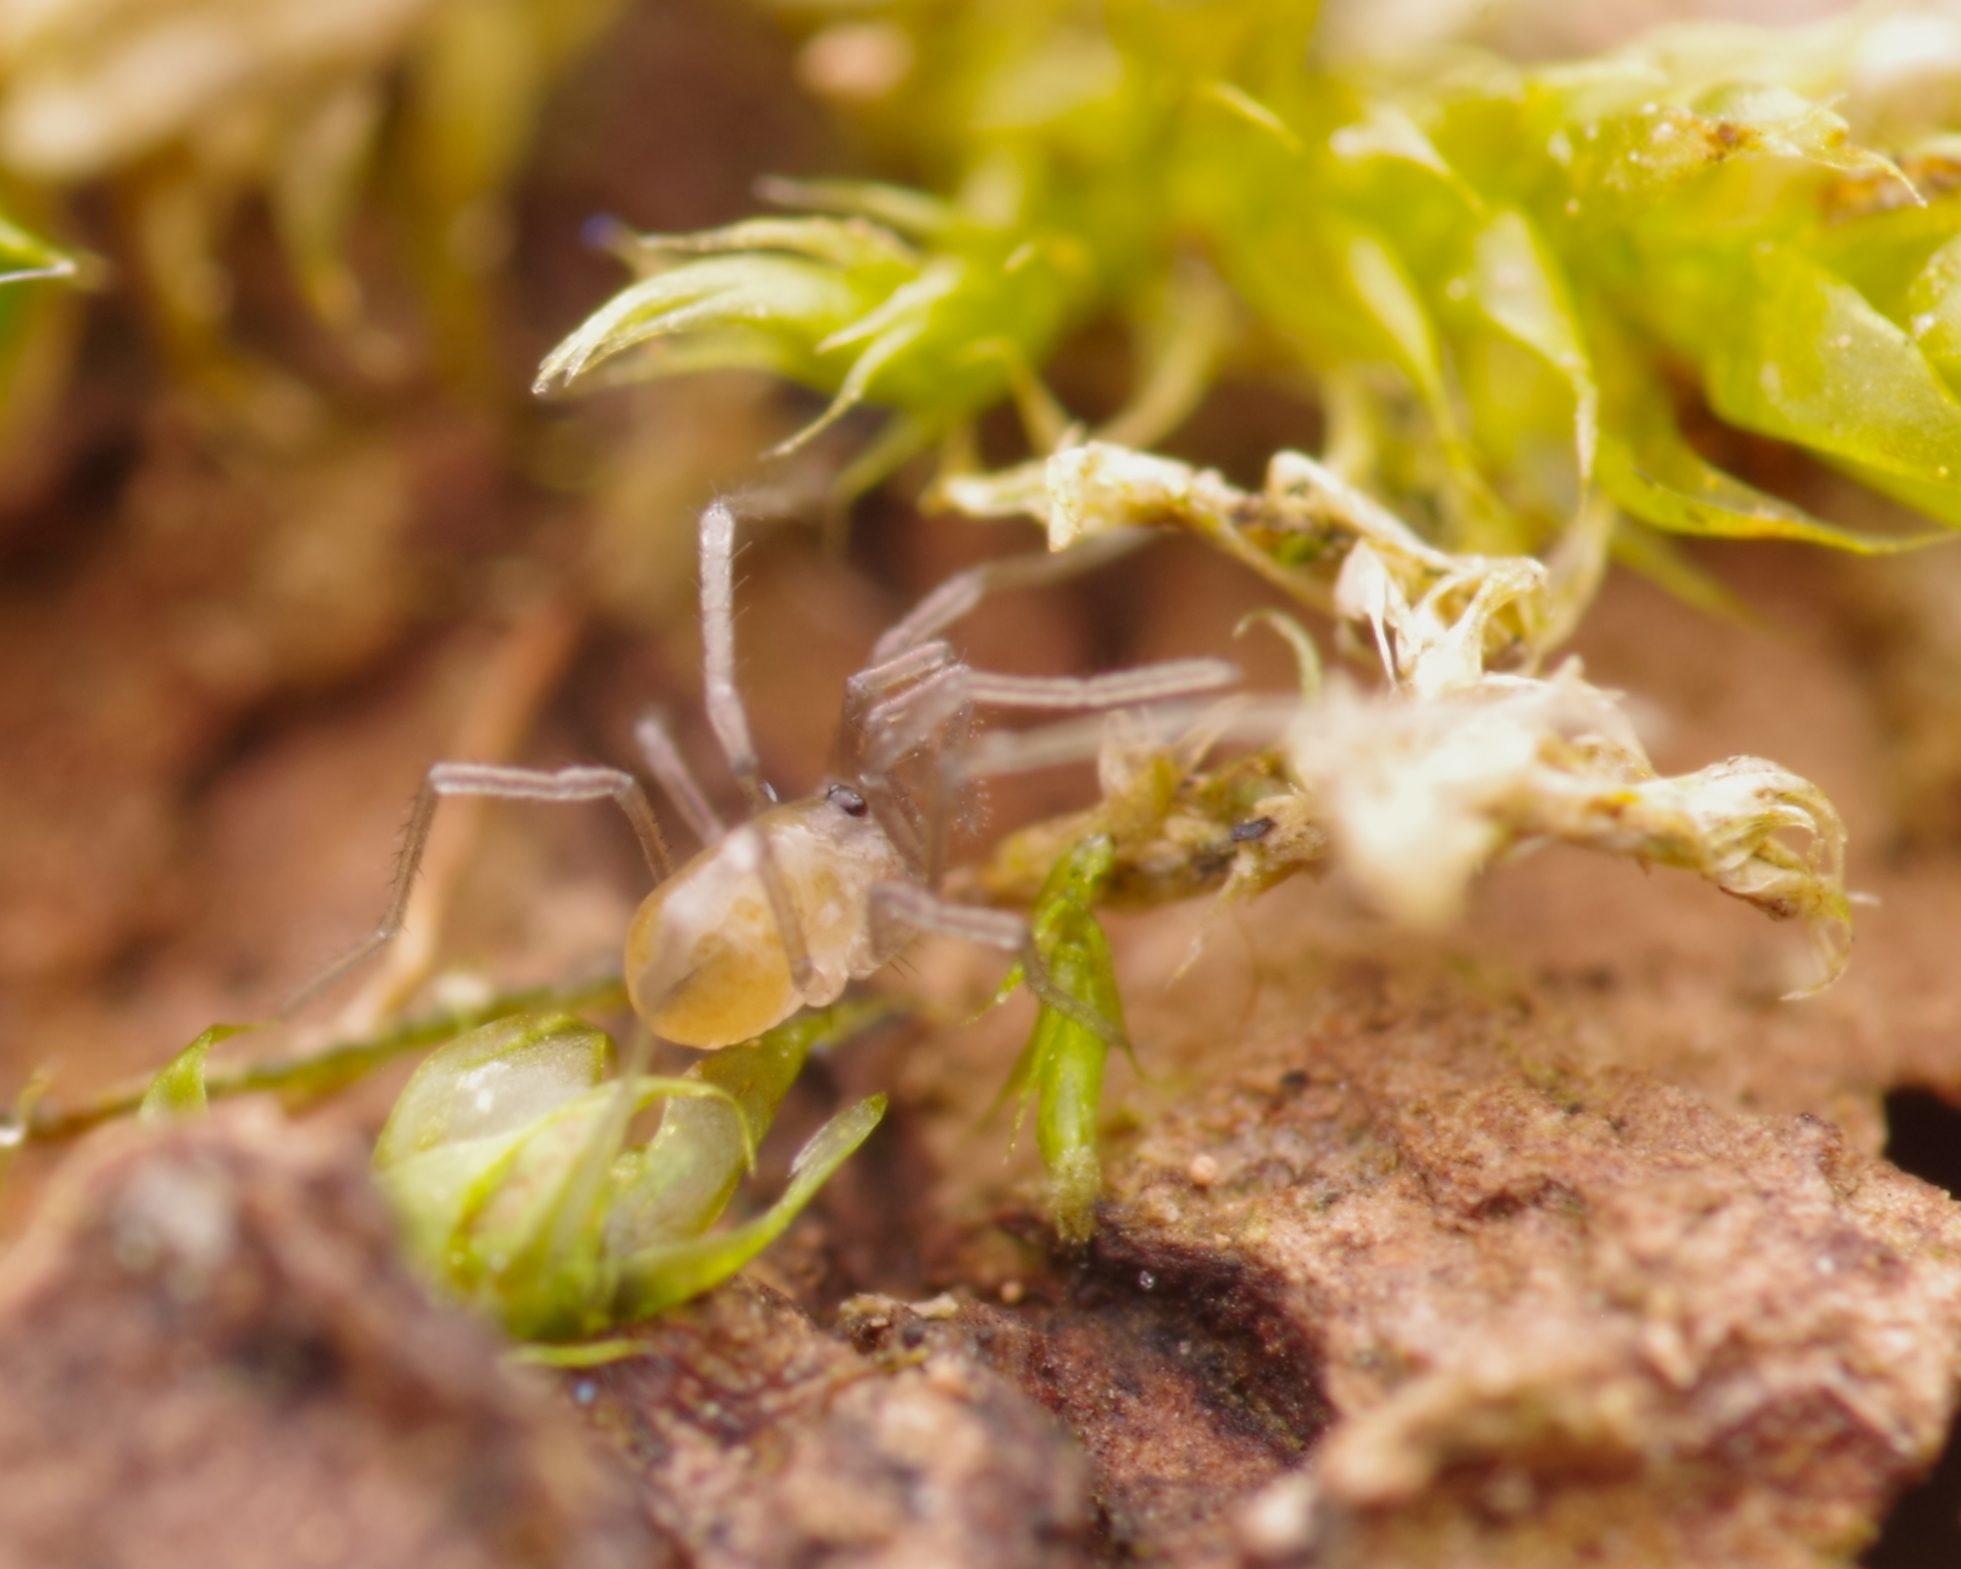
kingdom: Animalia
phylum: Arthropoda
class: Arachnida
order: Opiliones
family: Nemastomatidae
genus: Mitostoma
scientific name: Mitostoma chrysomelas
